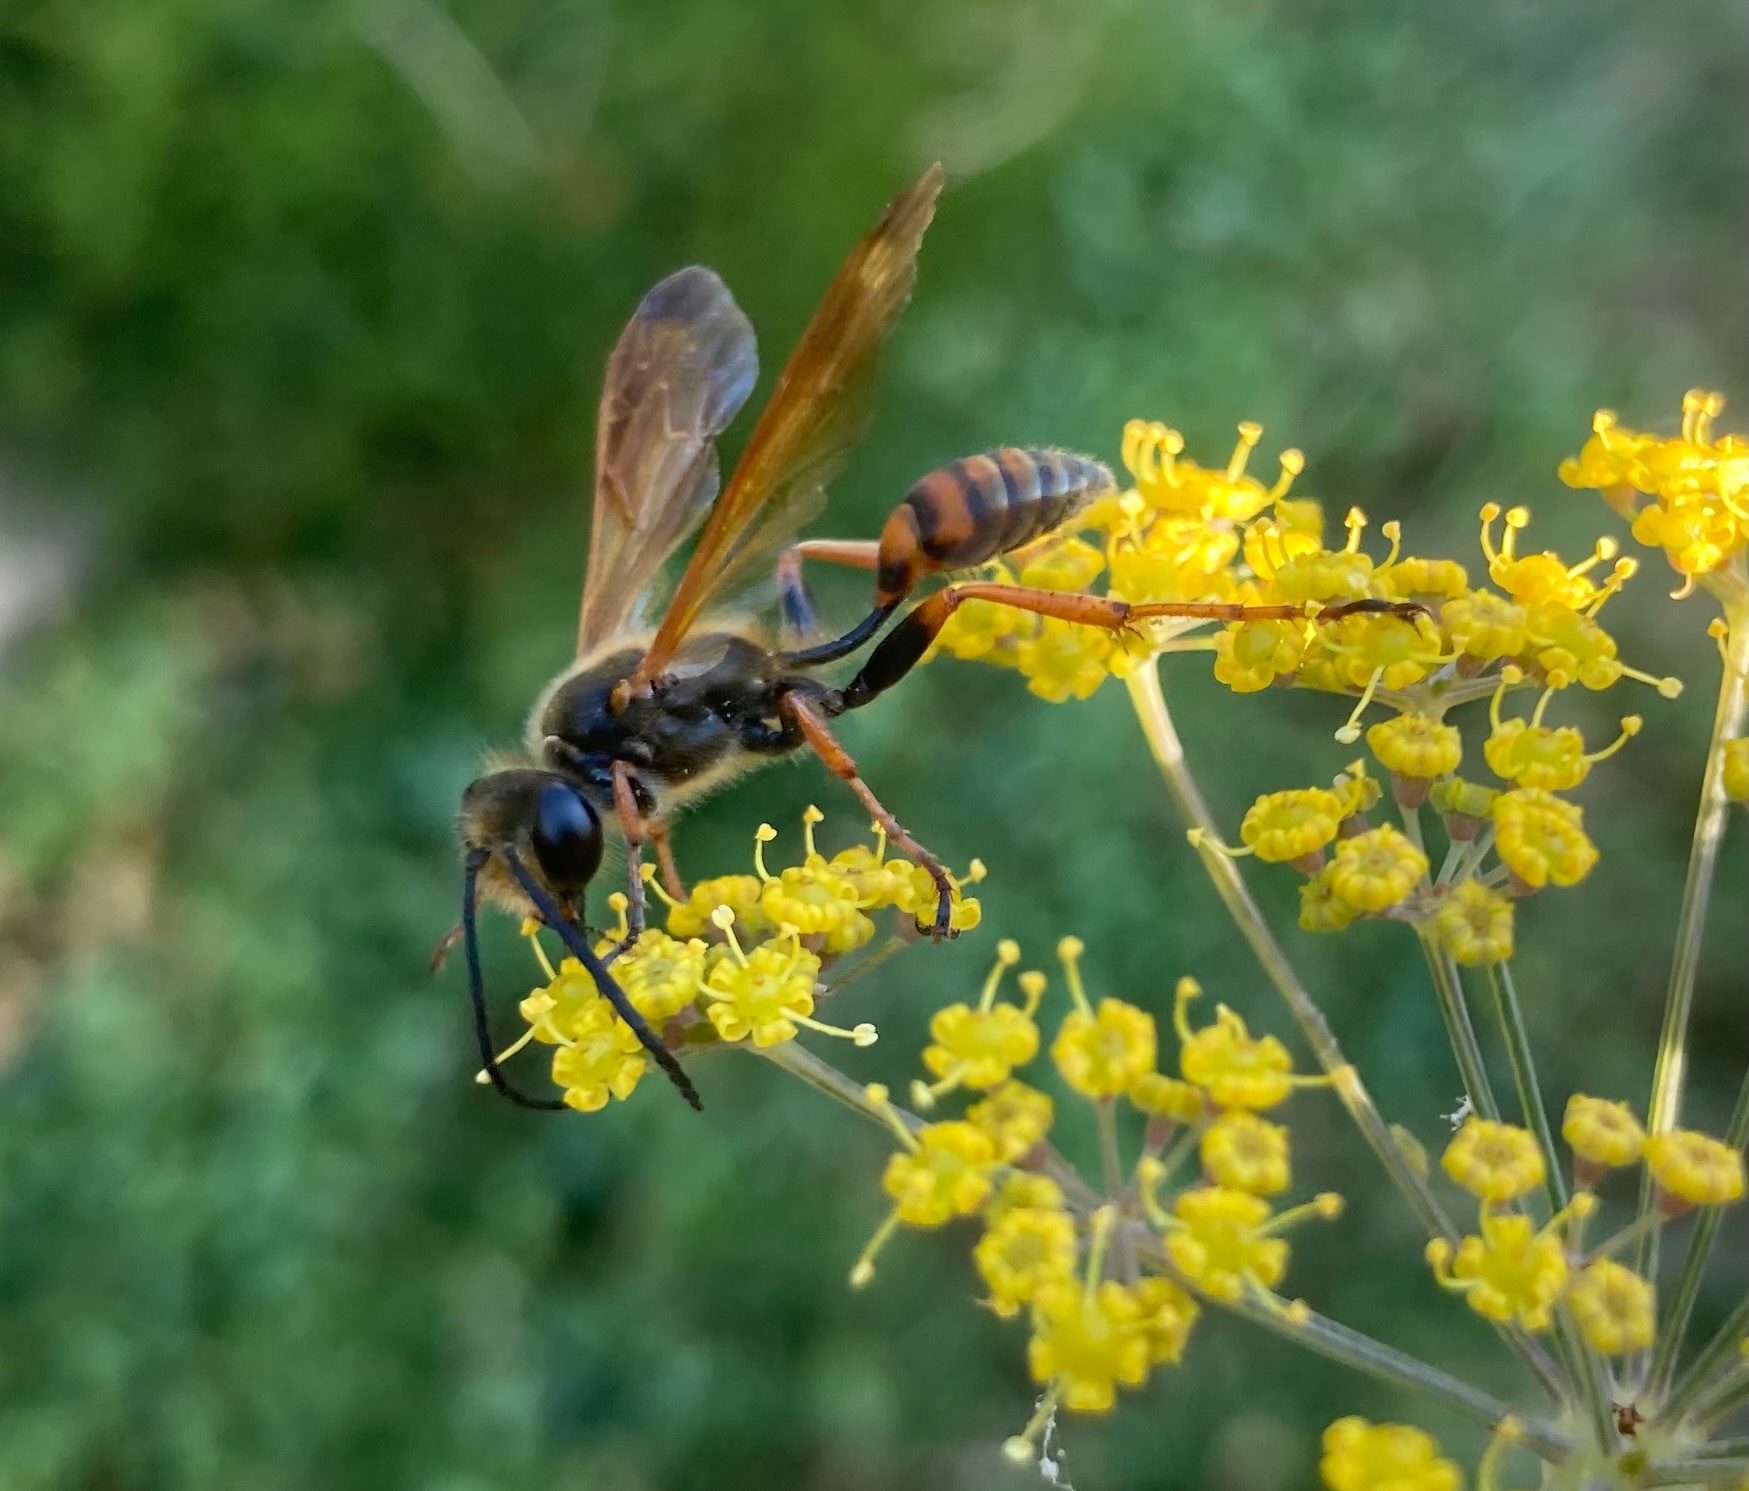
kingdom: Animalia
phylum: Arthropoda
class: Insecta
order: Hymenoptera
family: Sphecidae
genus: Isodontia
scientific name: Isodontia elegans
